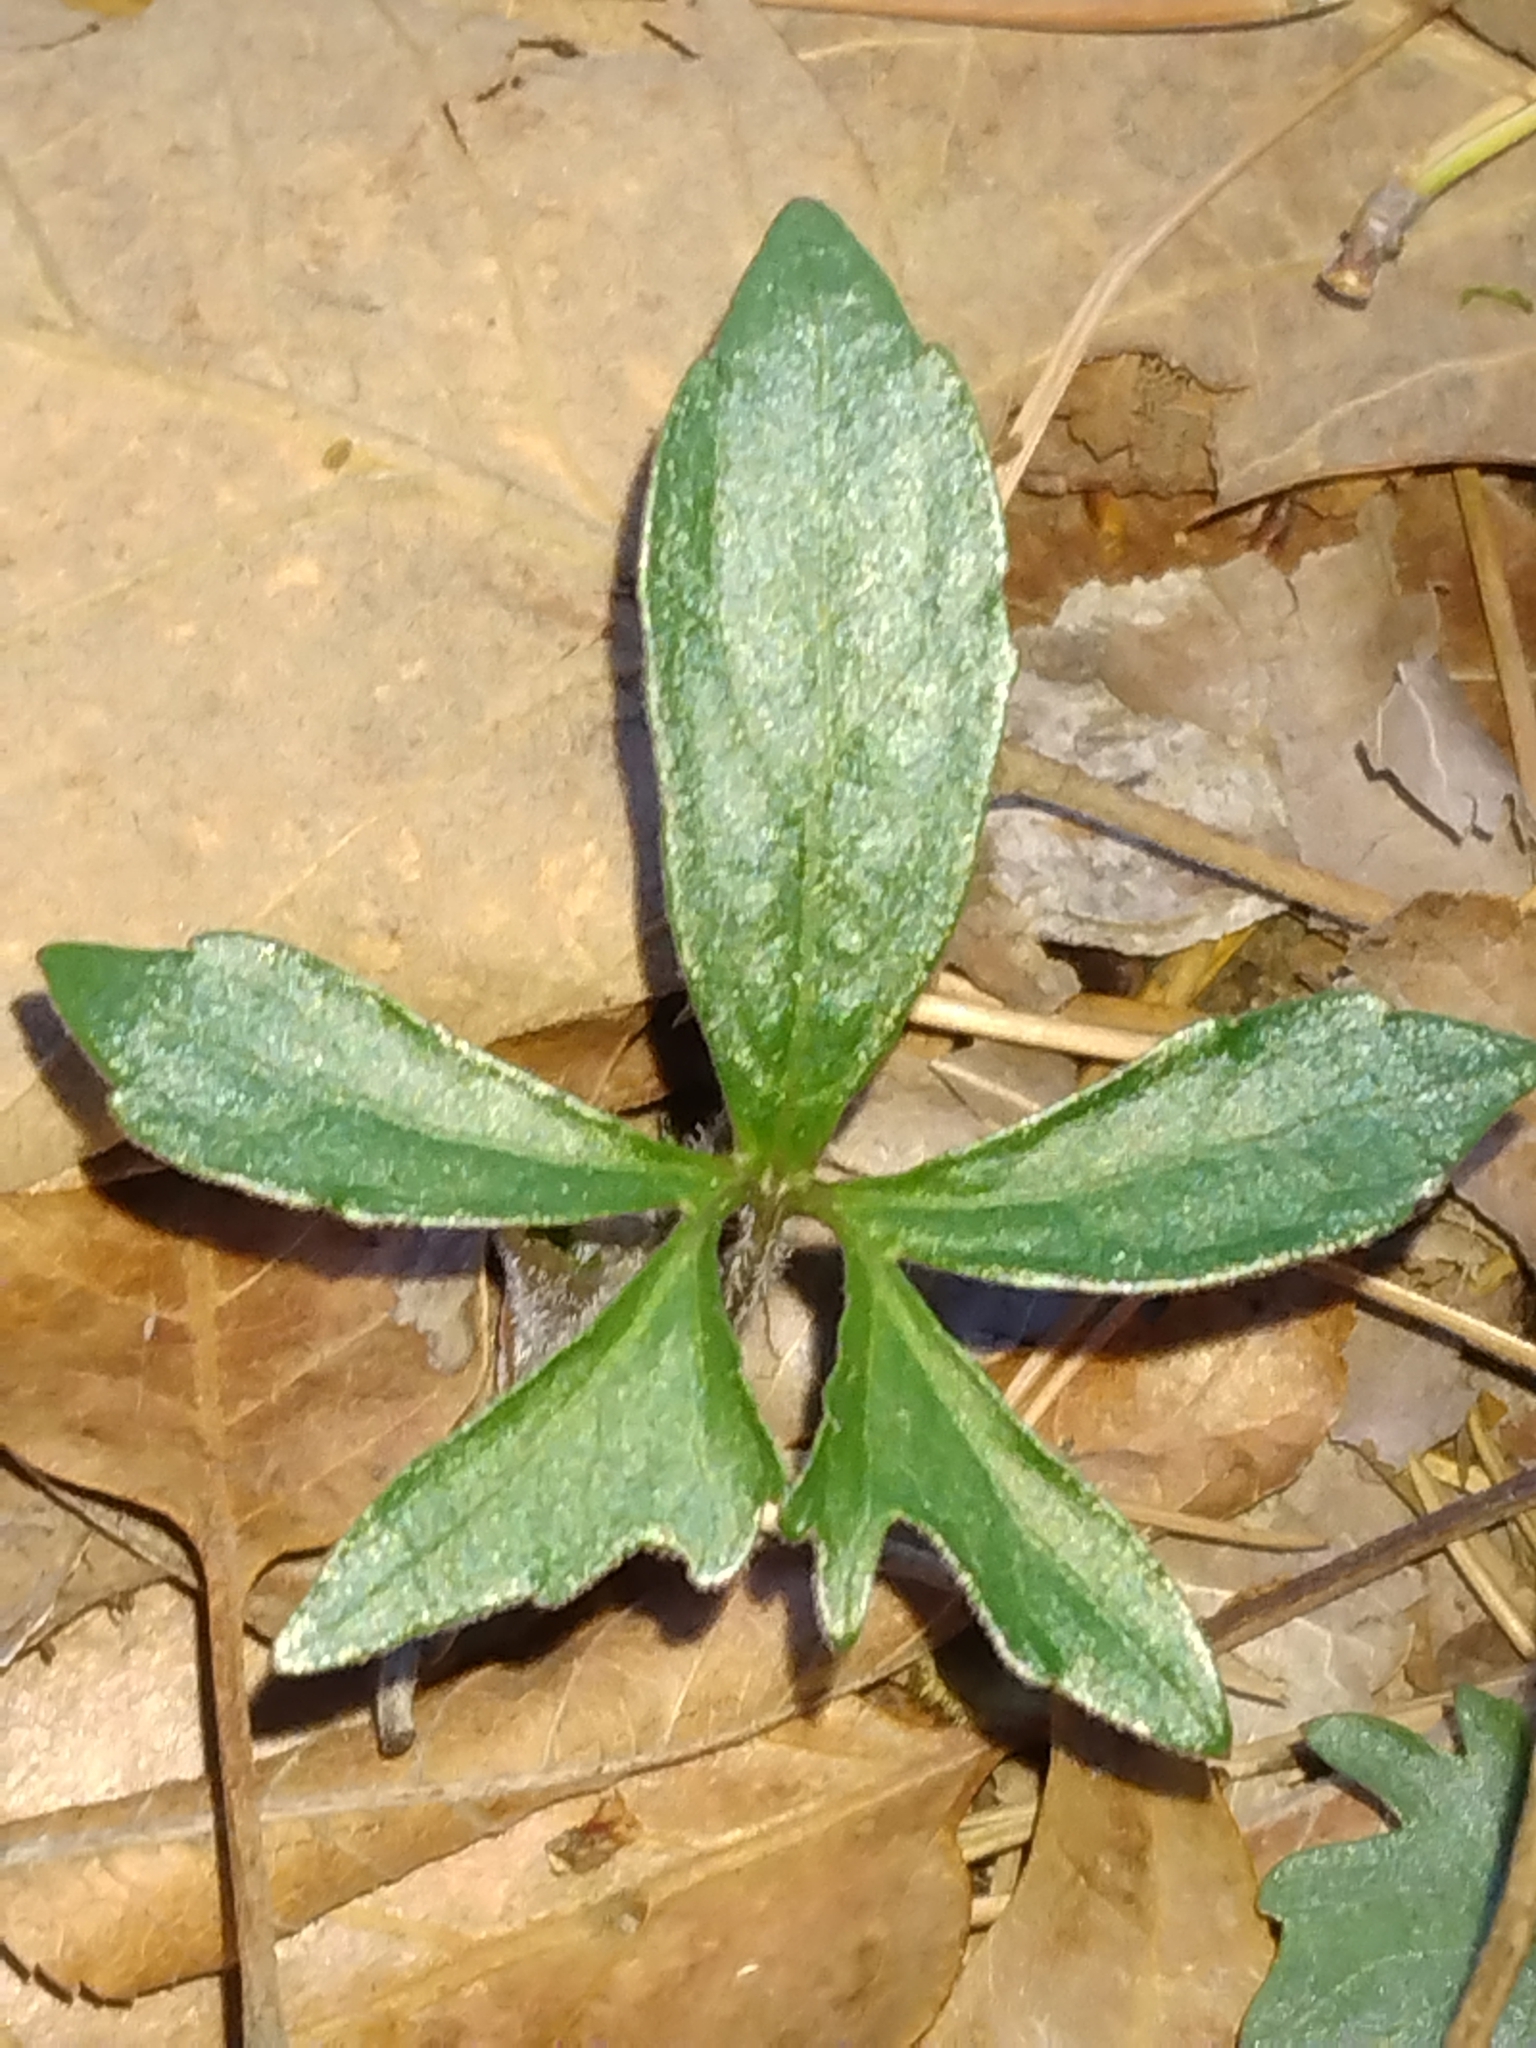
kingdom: Plantae
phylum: Tracheophyta
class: Magnoliopsida
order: Malpighiales
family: Violaceae
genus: Viola
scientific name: Viola palmata
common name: Early blue violet
